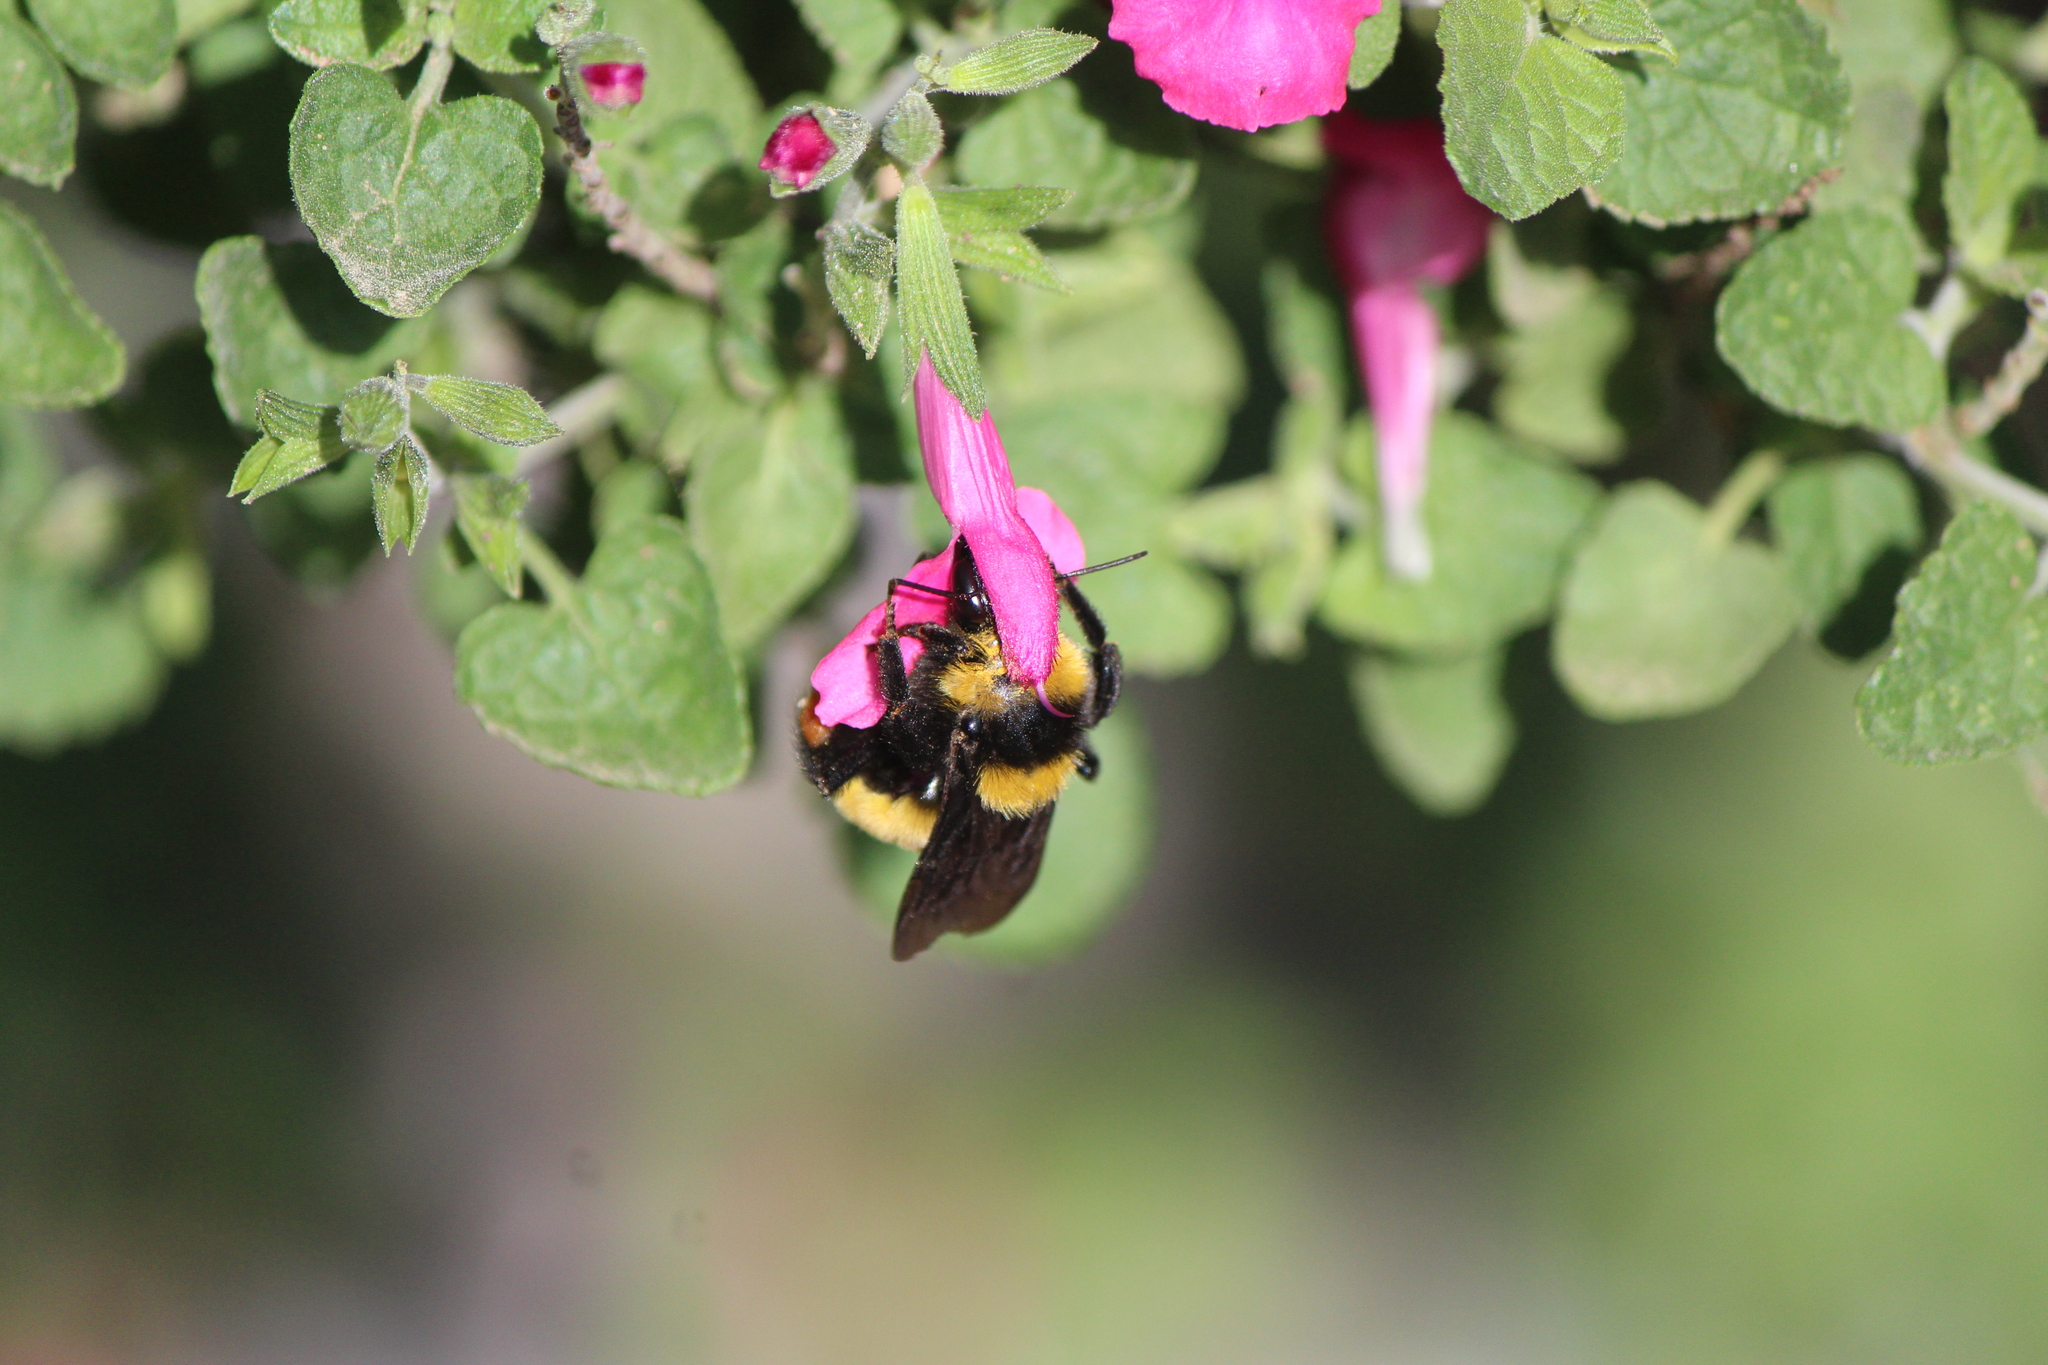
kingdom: Animalia
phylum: Arthropoda
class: Insecta
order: Hymenoptera
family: Apidae
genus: Bombus
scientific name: Bombus sonorus
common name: Sonoran bumble bee
